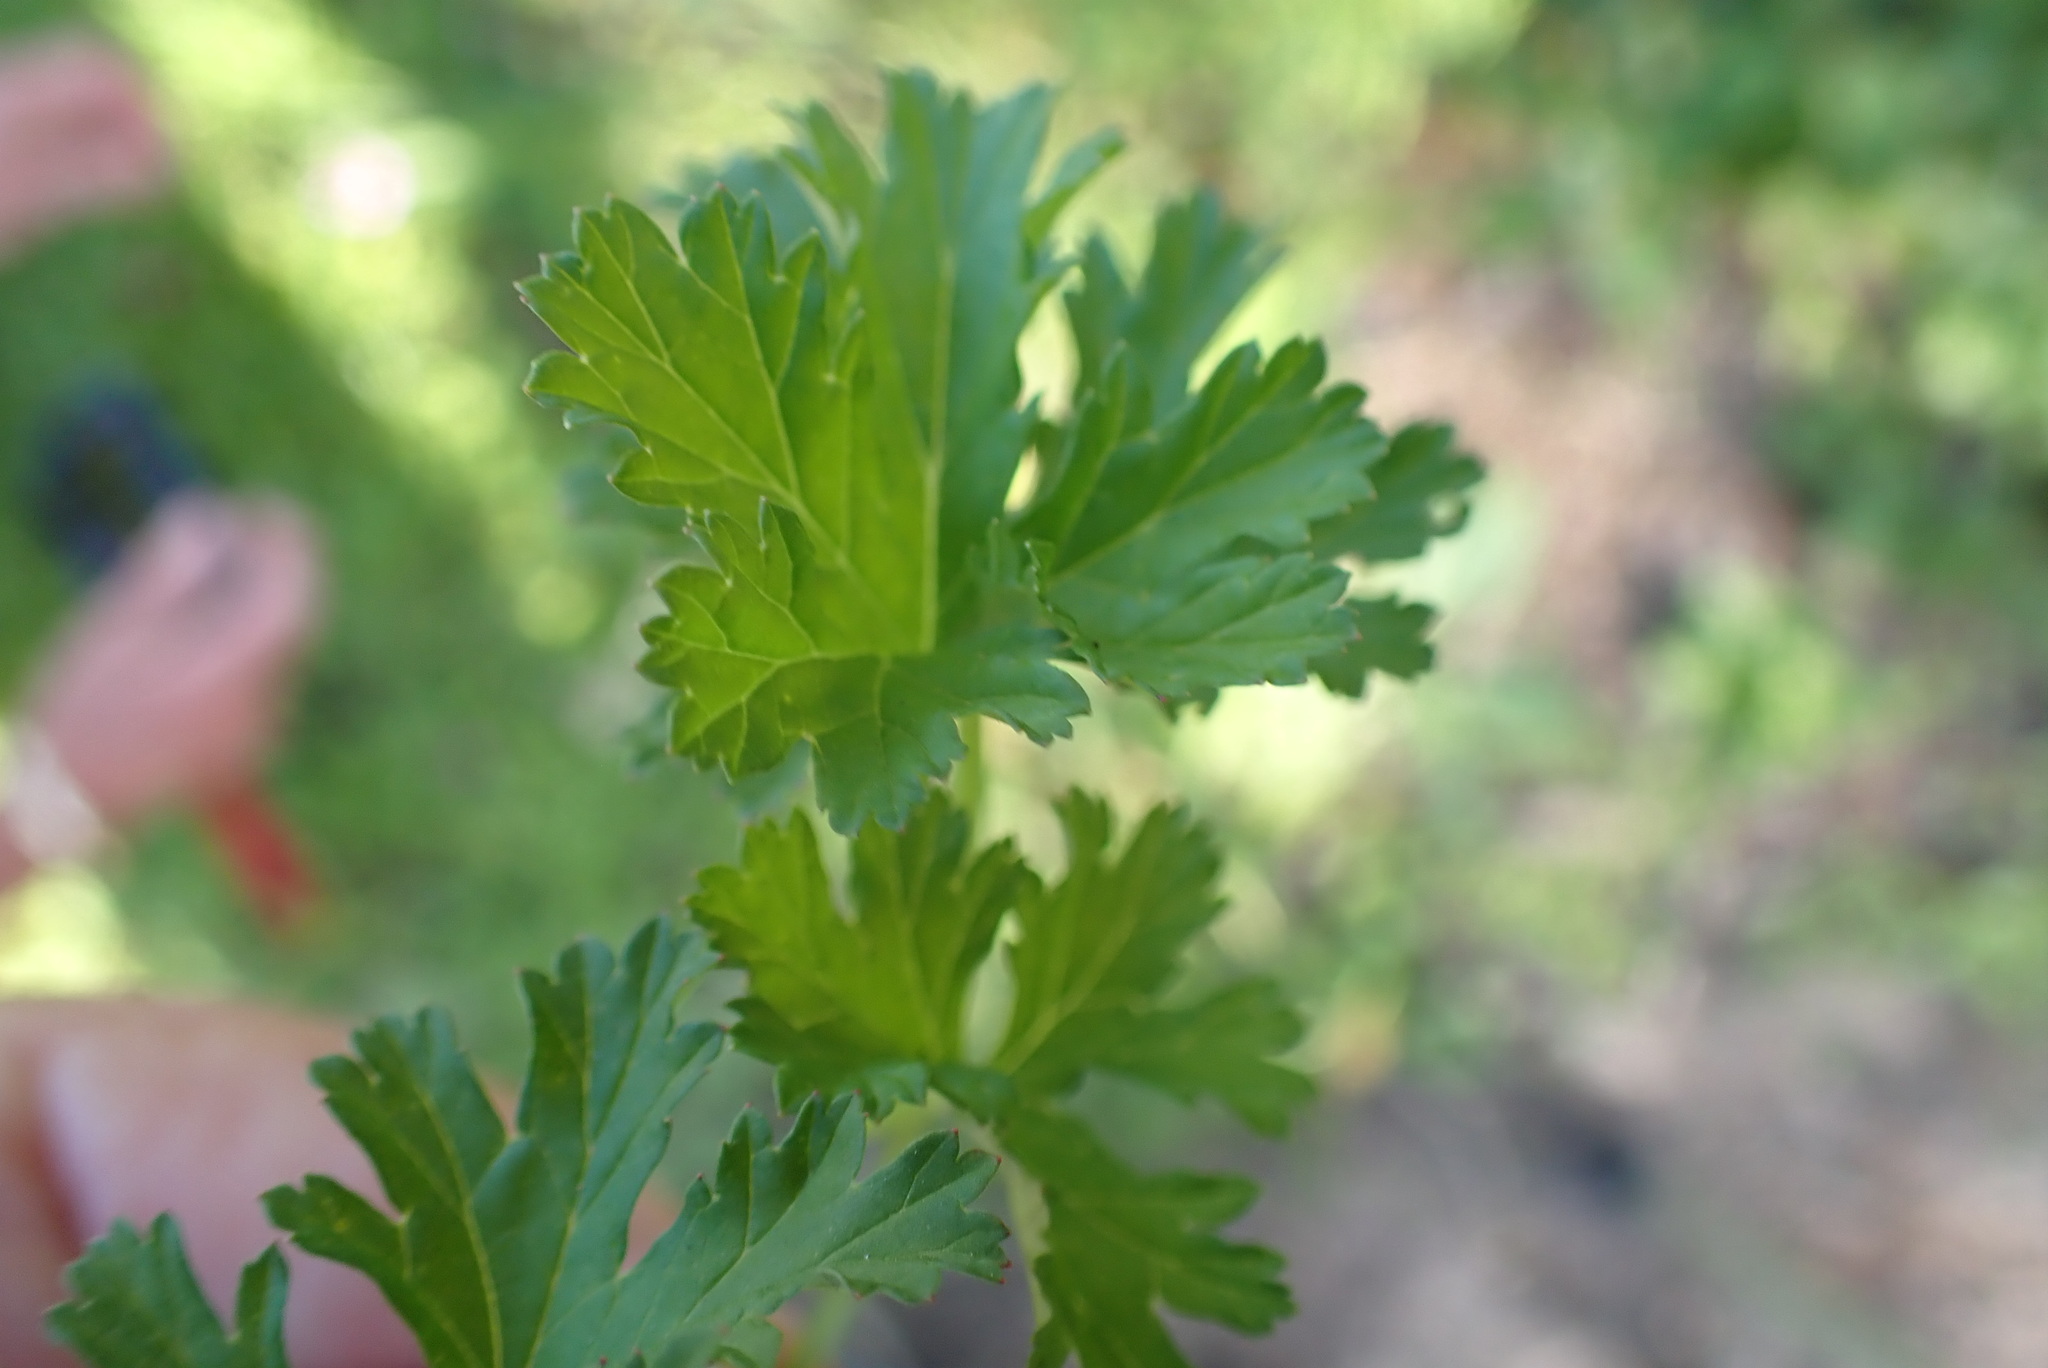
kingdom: Plantae
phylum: Tracheophyta
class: Magnoliopsida
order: Geraniales
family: Geraniaceae
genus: Pelargonium
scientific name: Pelargonium grossularioides
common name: Gooseberry geranium
